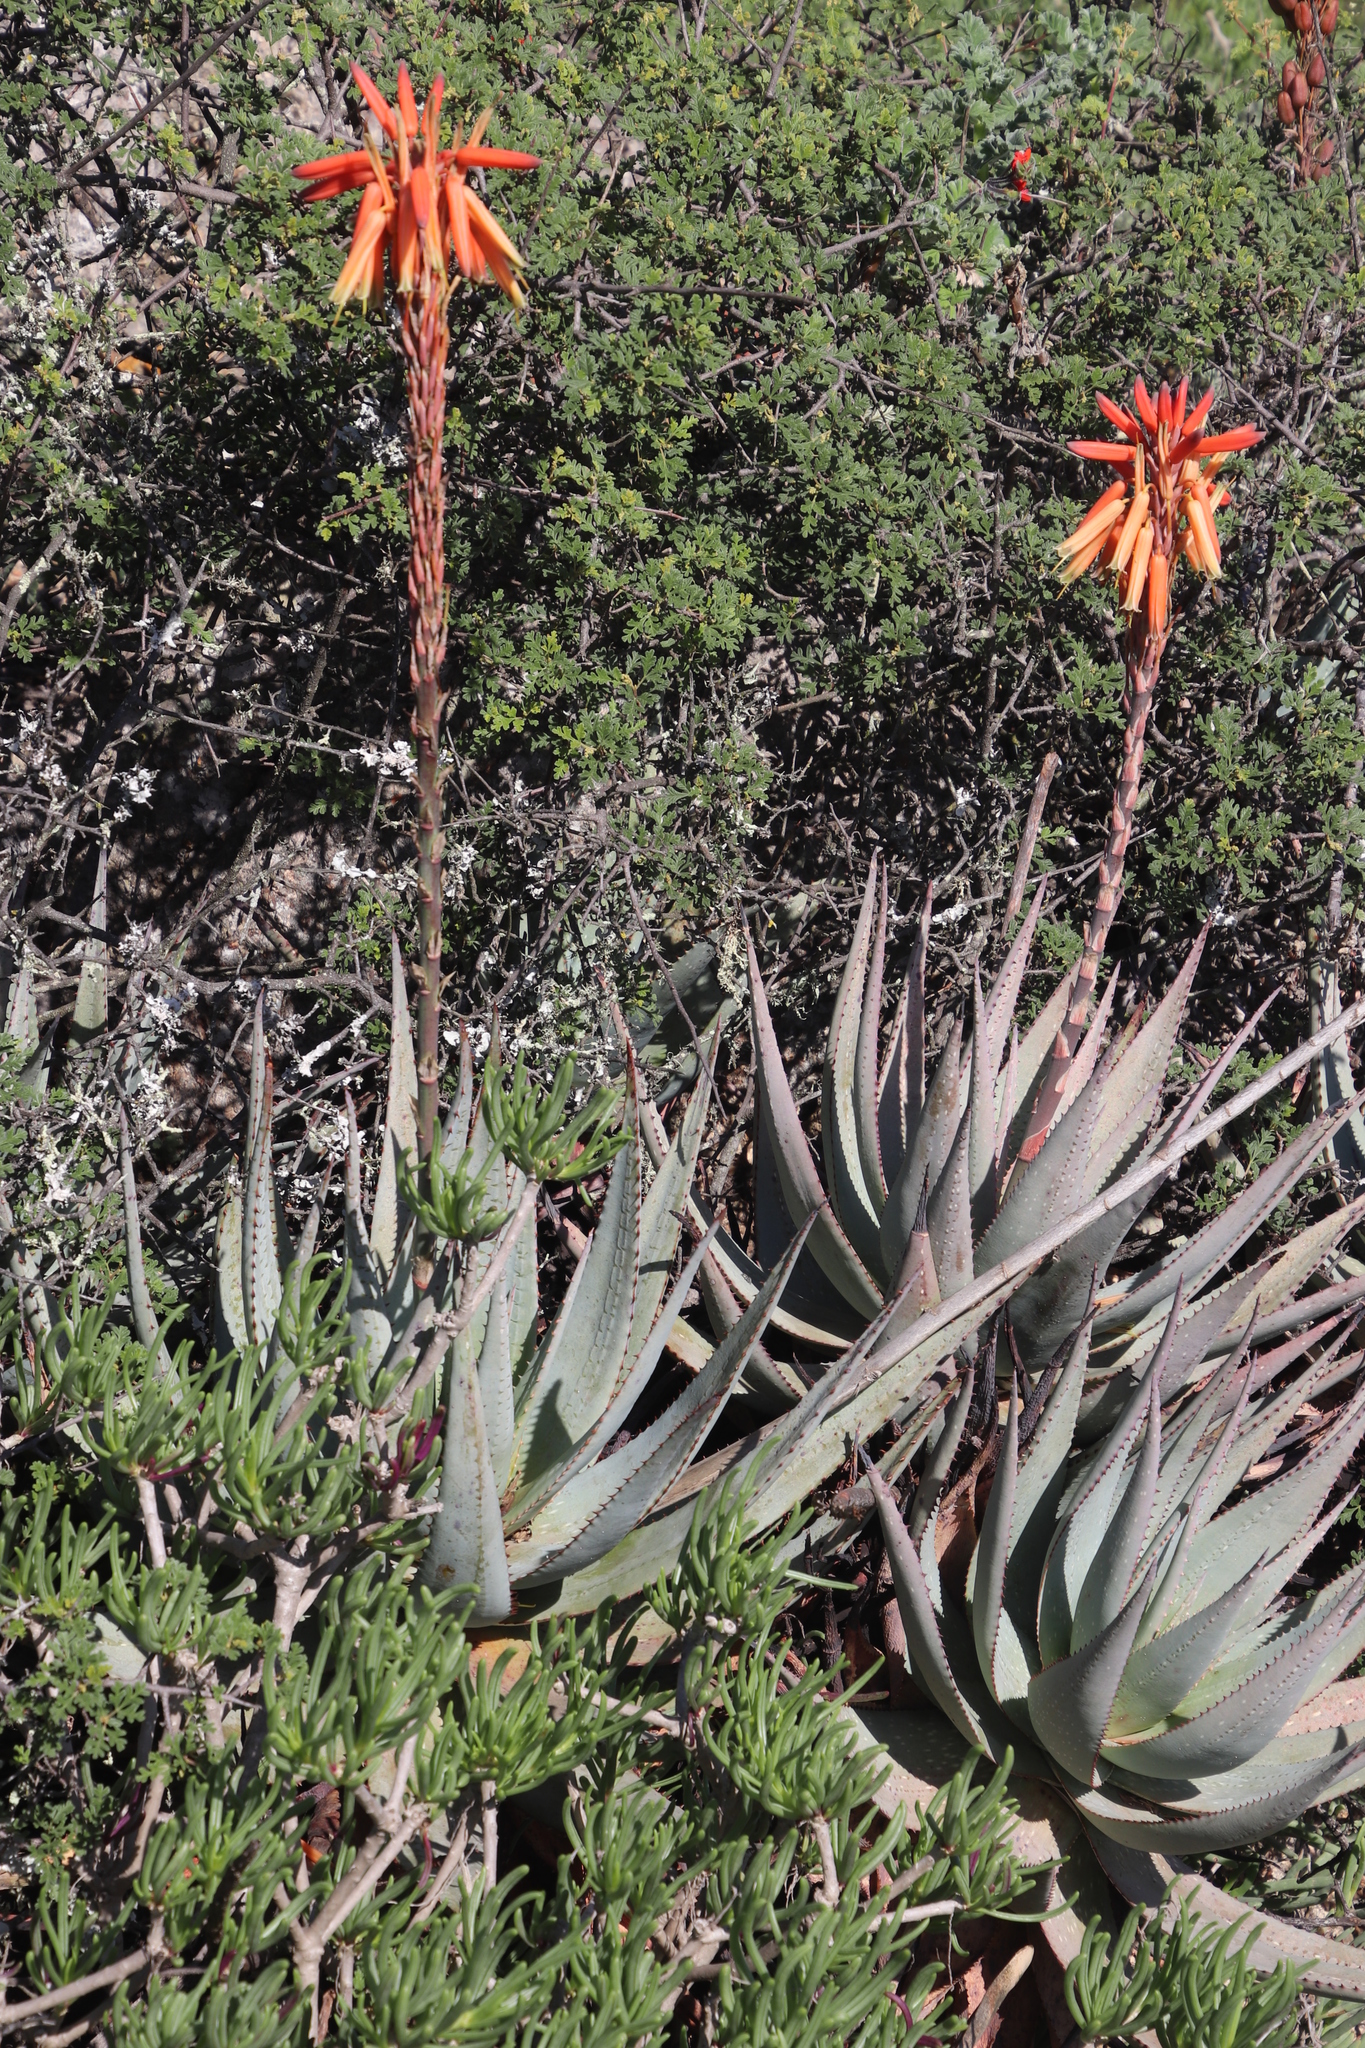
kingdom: Plantae
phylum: Tracheophyta
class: Liliopsida
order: Asparagales
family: Asphodelaceae
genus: Aloe
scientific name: Aloe microstigma
